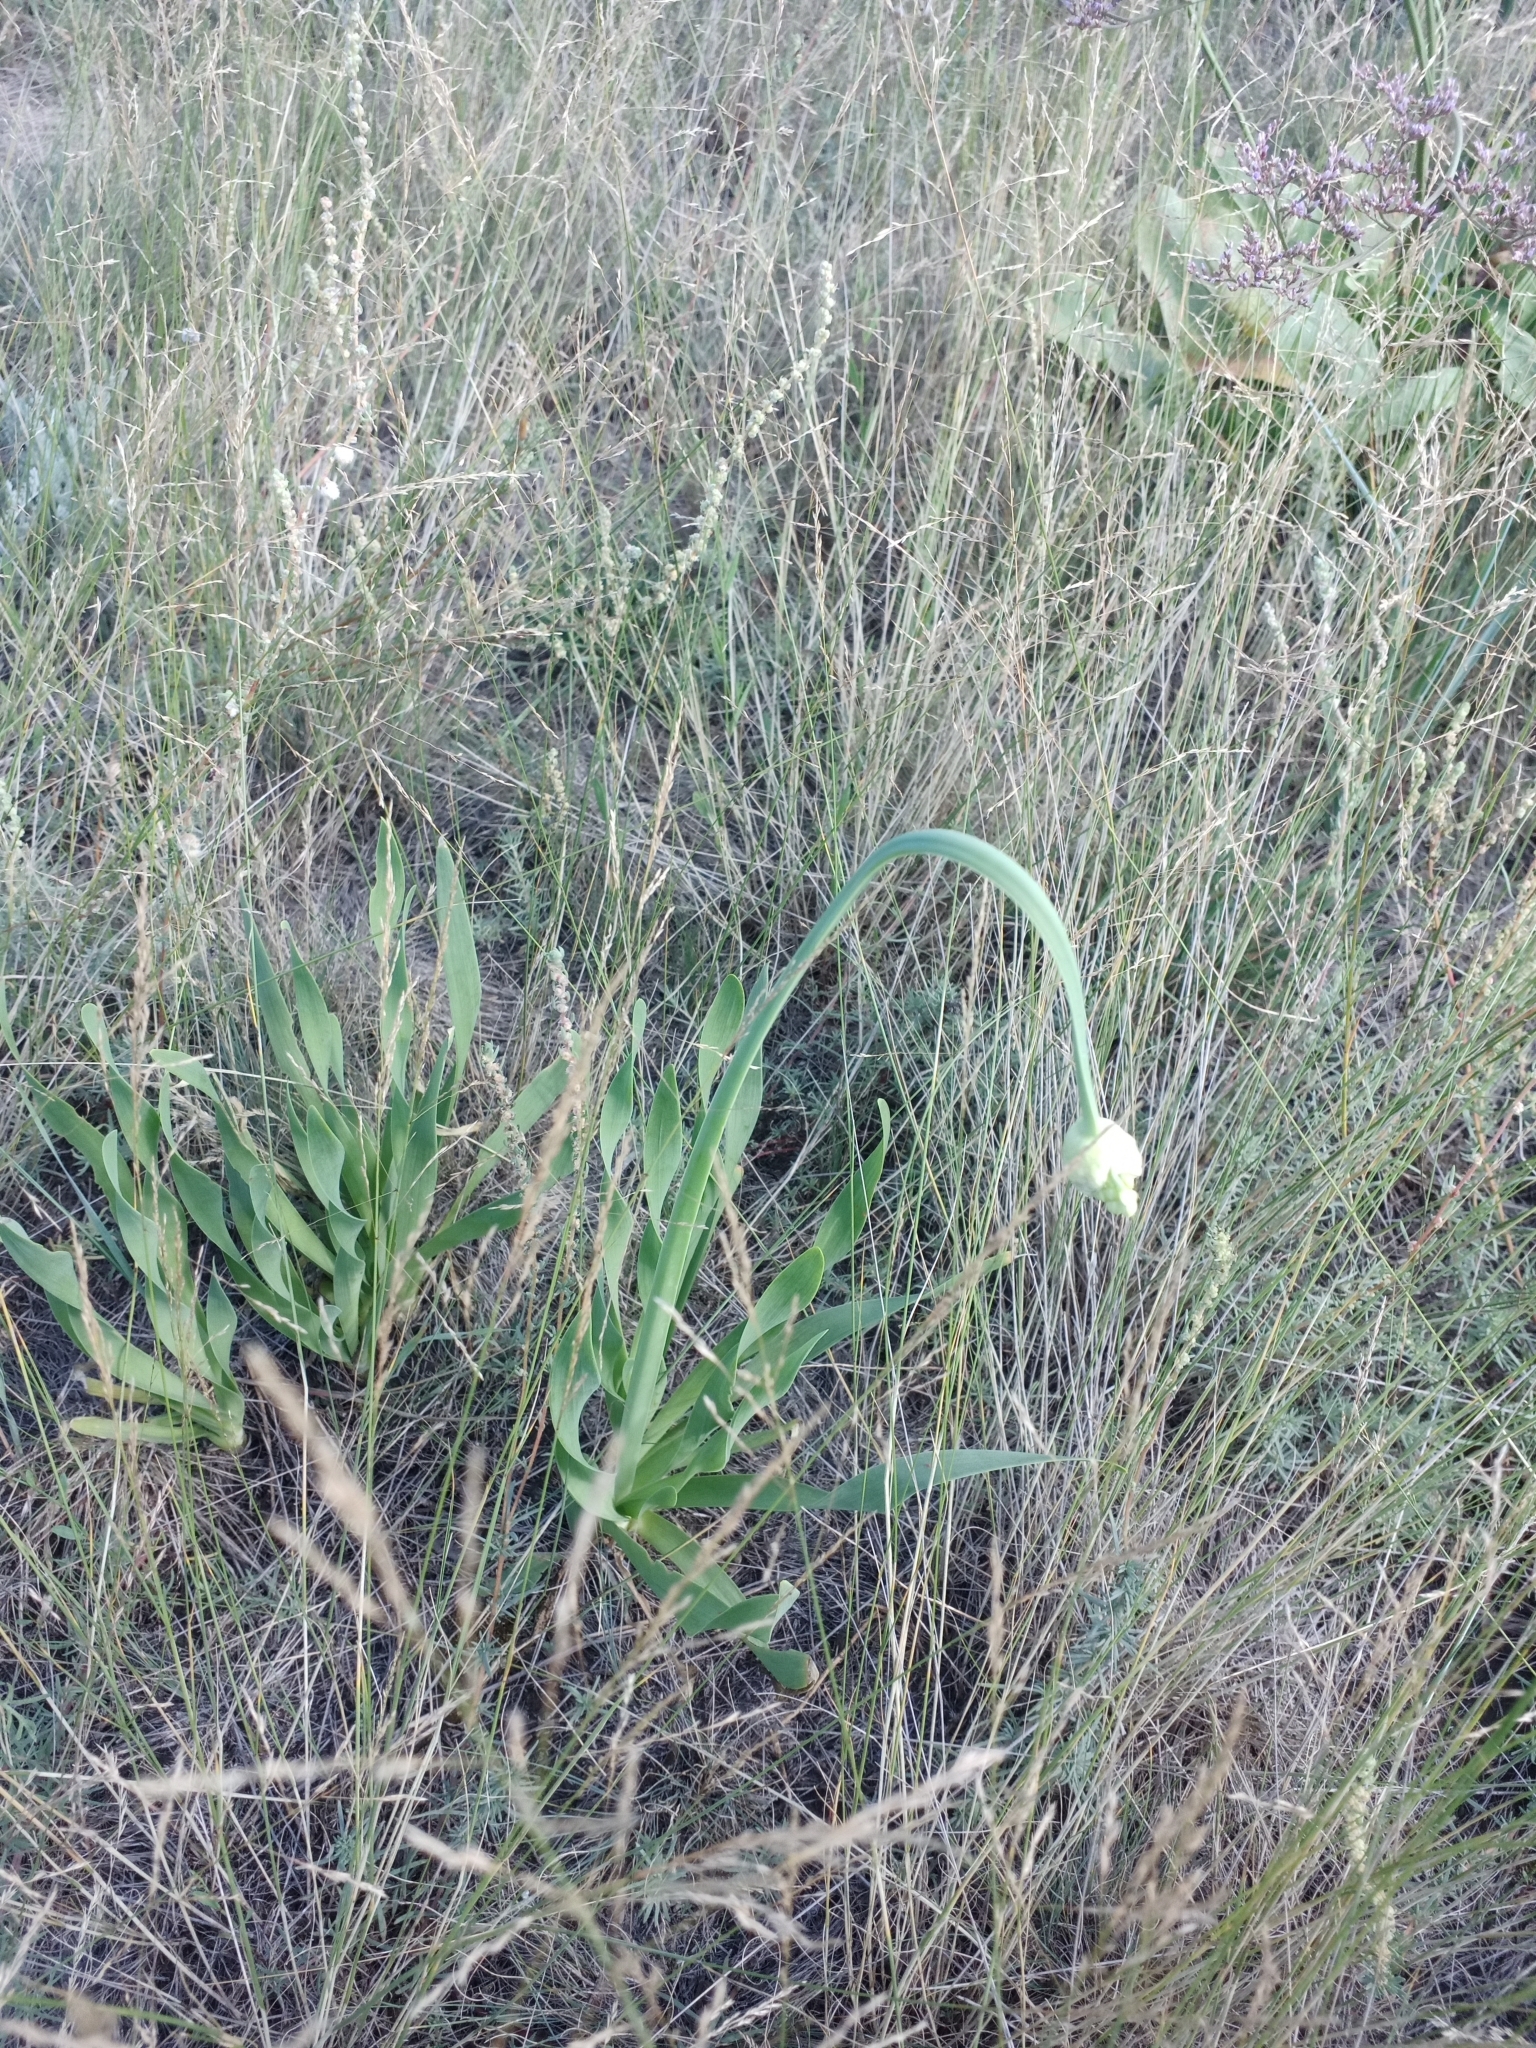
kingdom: Plantae
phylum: Tracheophyta
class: Liliopsida
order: Asparagales
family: Amaryllidaceae
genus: Allium
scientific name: Allium nutans
